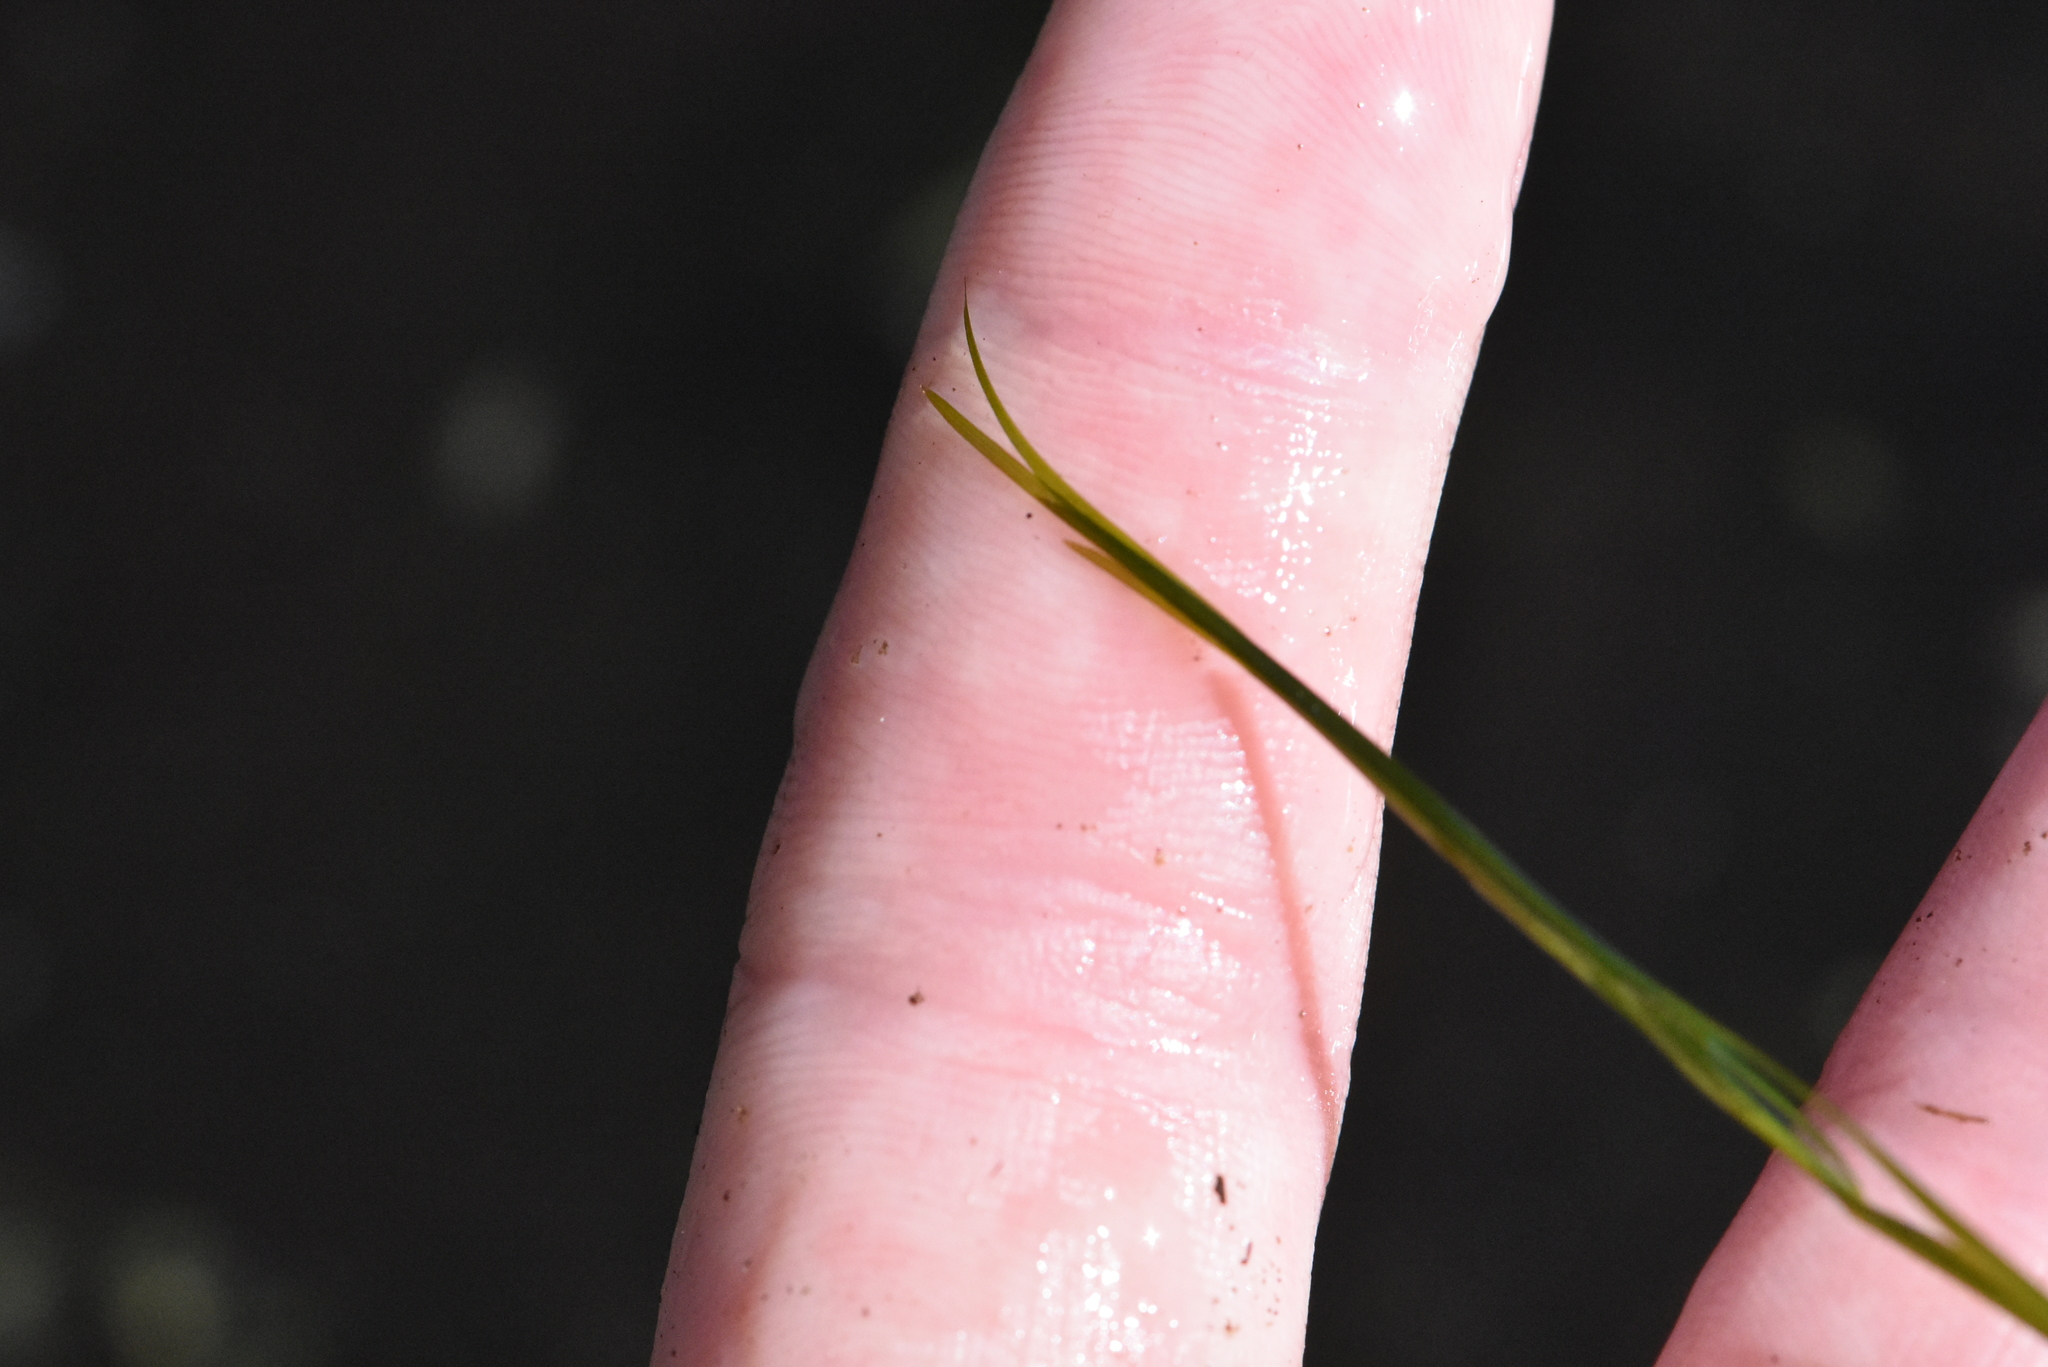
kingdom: Plantae
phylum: Tracheophyta
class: Liliopsida
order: Alismatales
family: Potamogetonaceae
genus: Potamogeton
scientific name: Potamogeton trichoides
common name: Hairlike pondweed
